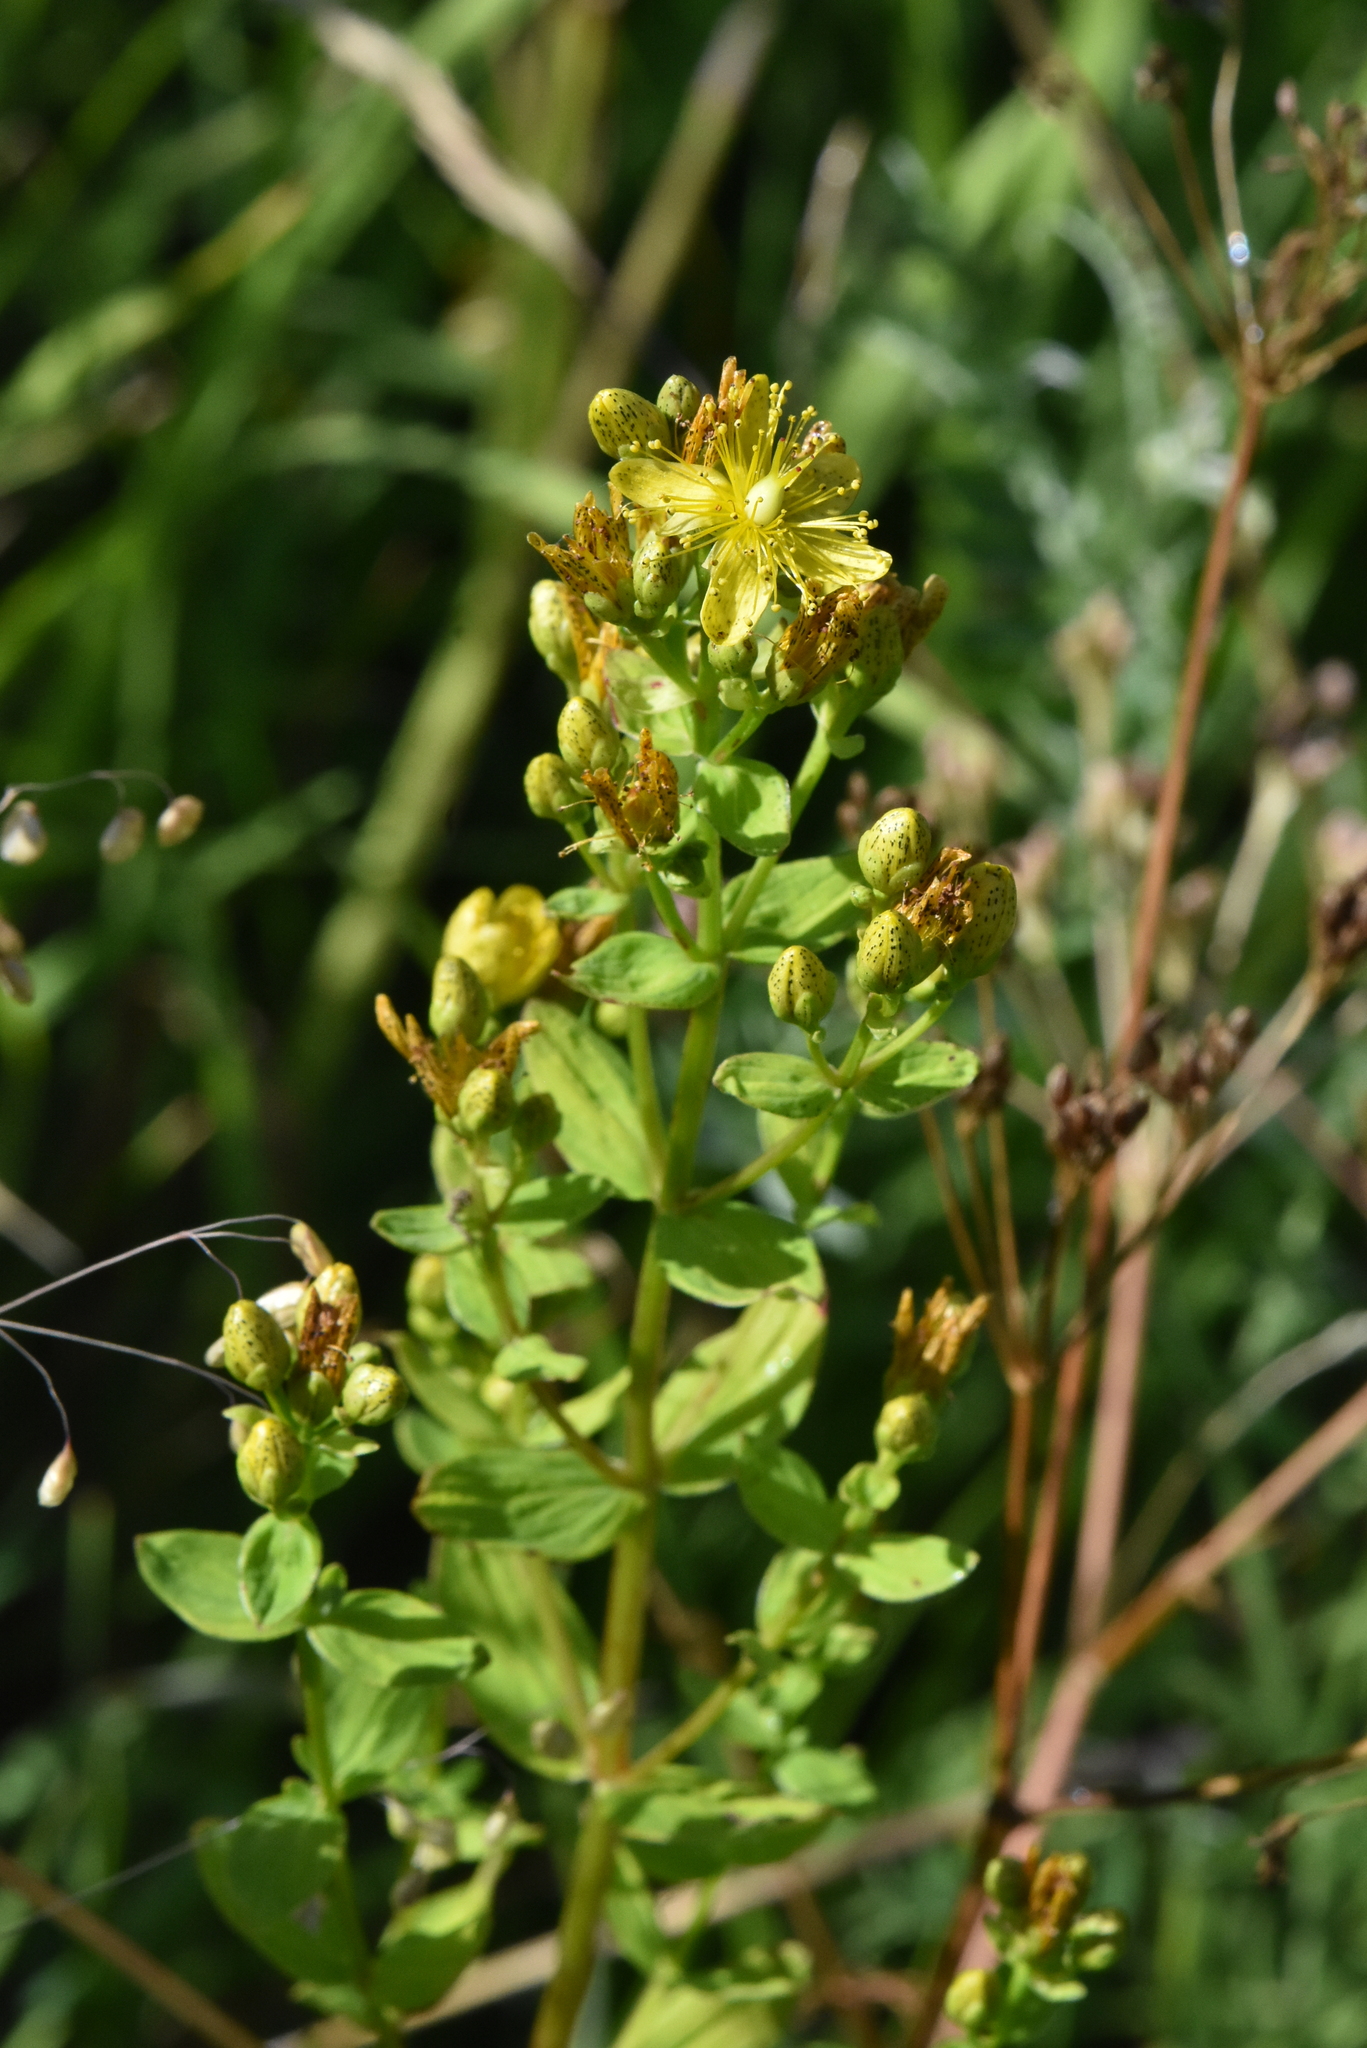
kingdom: Plantae
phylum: Tracheophyta
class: Magnoliopsida
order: Malpighiales
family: Hypericaceae
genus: Hypericum
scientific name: Hypericum maculatum
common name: Imperforate st. john's-wort
